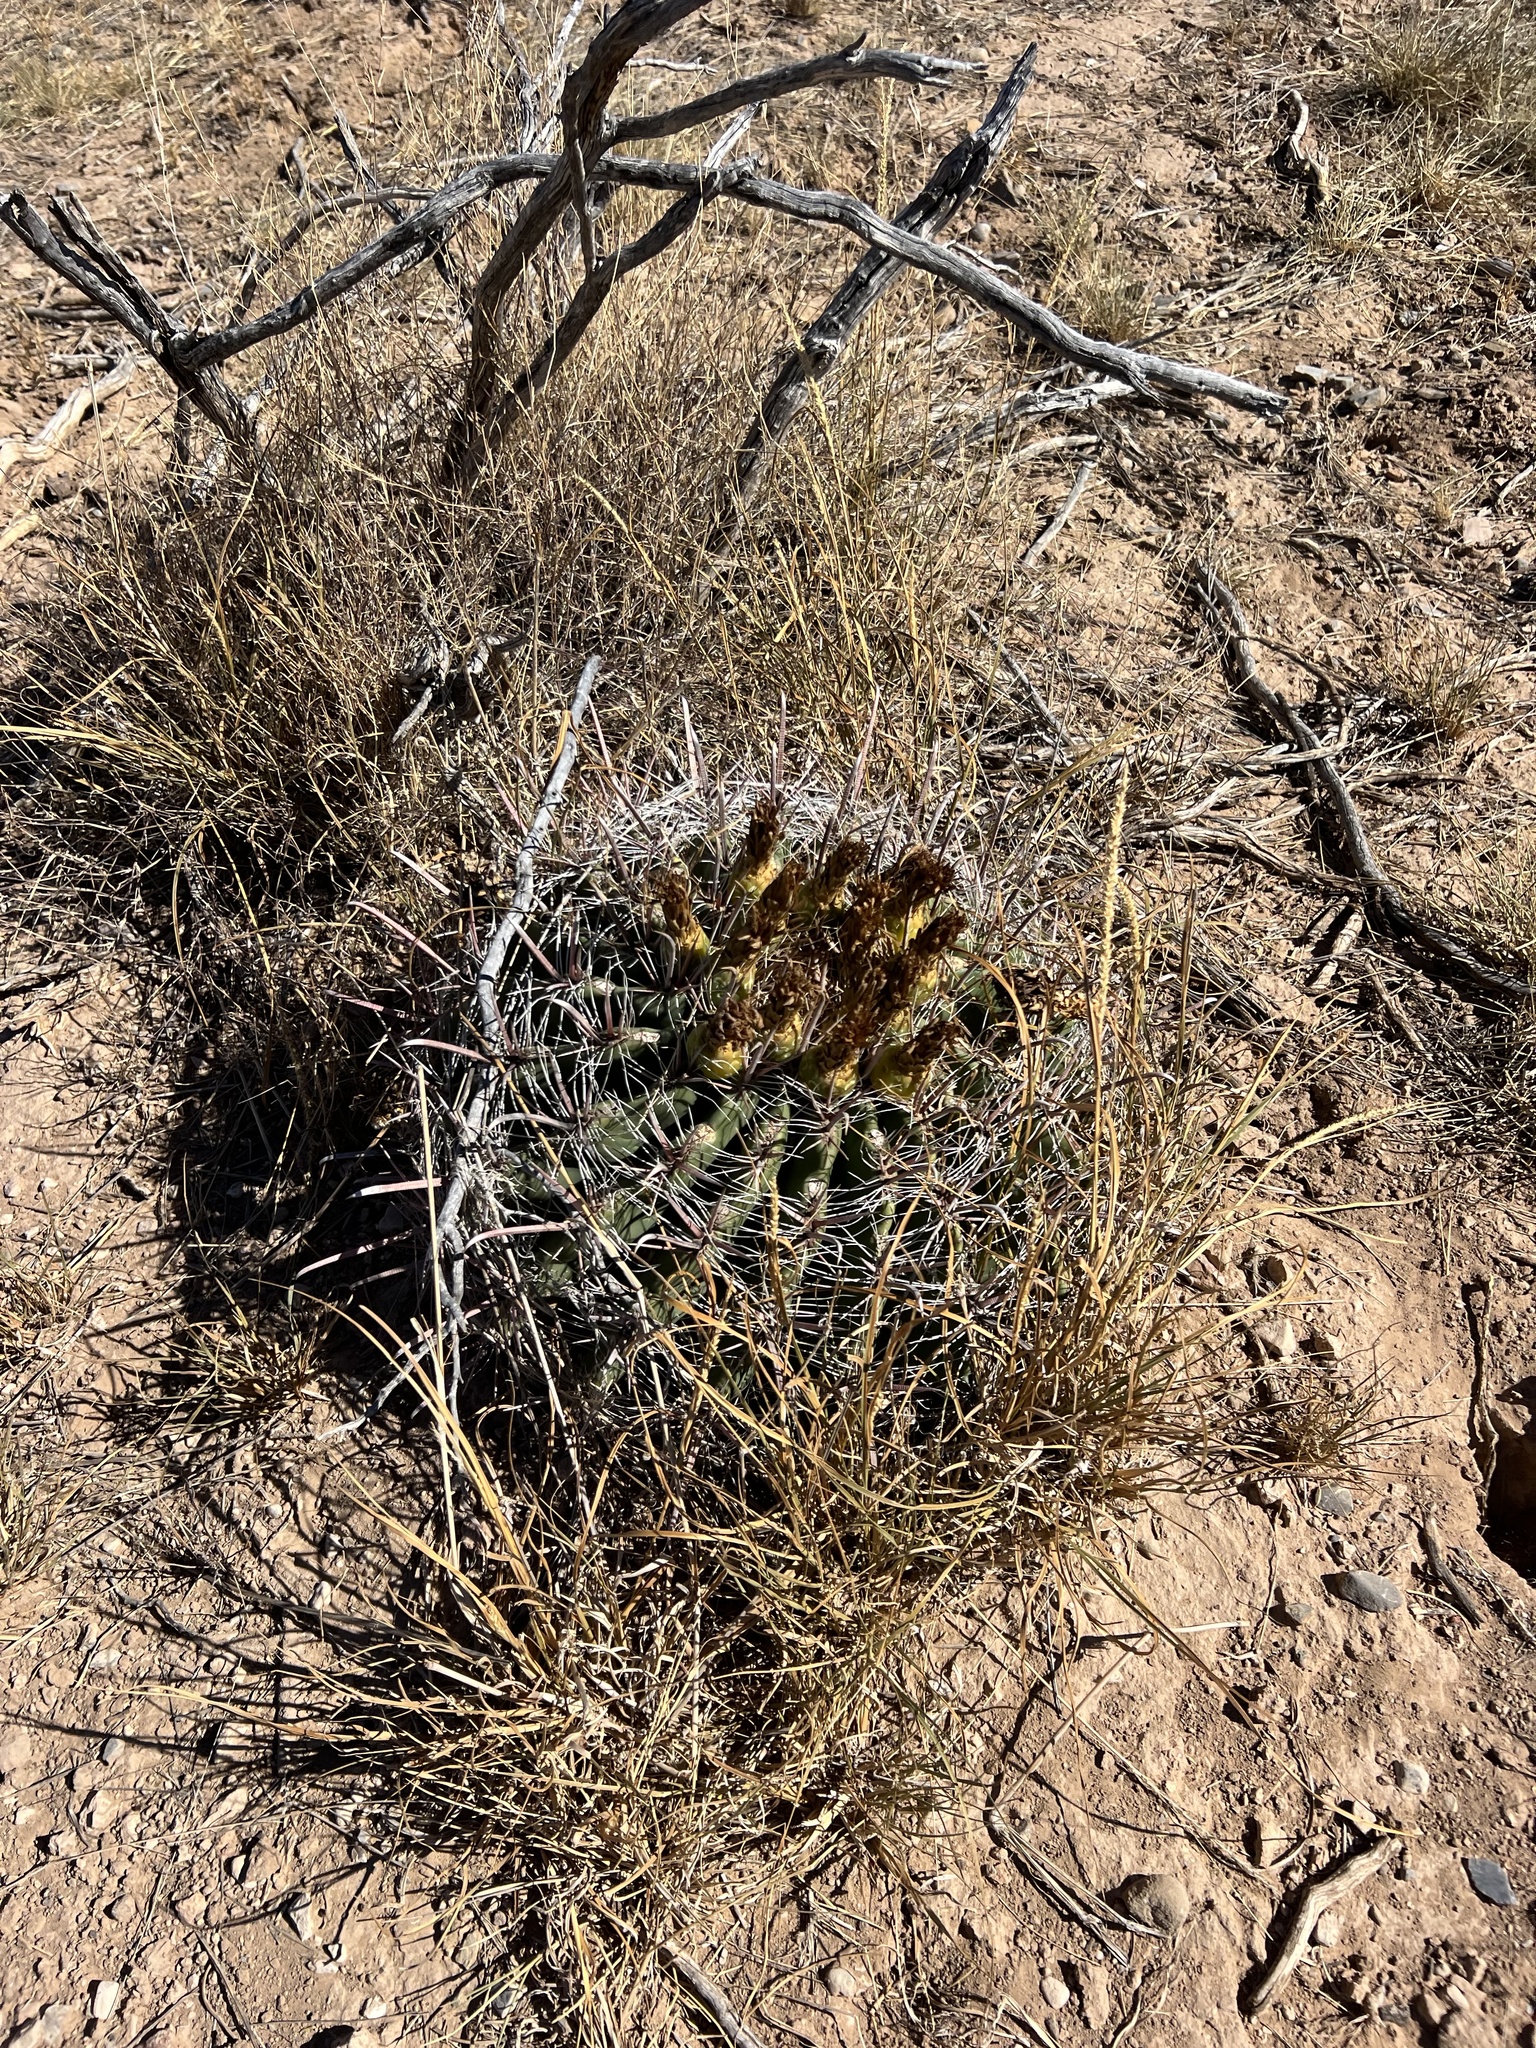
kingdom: Plantae
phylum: Tracheophyta
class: Magnoliopsida
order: Caryophyllales
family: Cactaceae
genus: Ferocactus
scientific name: Ferocactus wislizeni
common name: Candy barrel cactus
